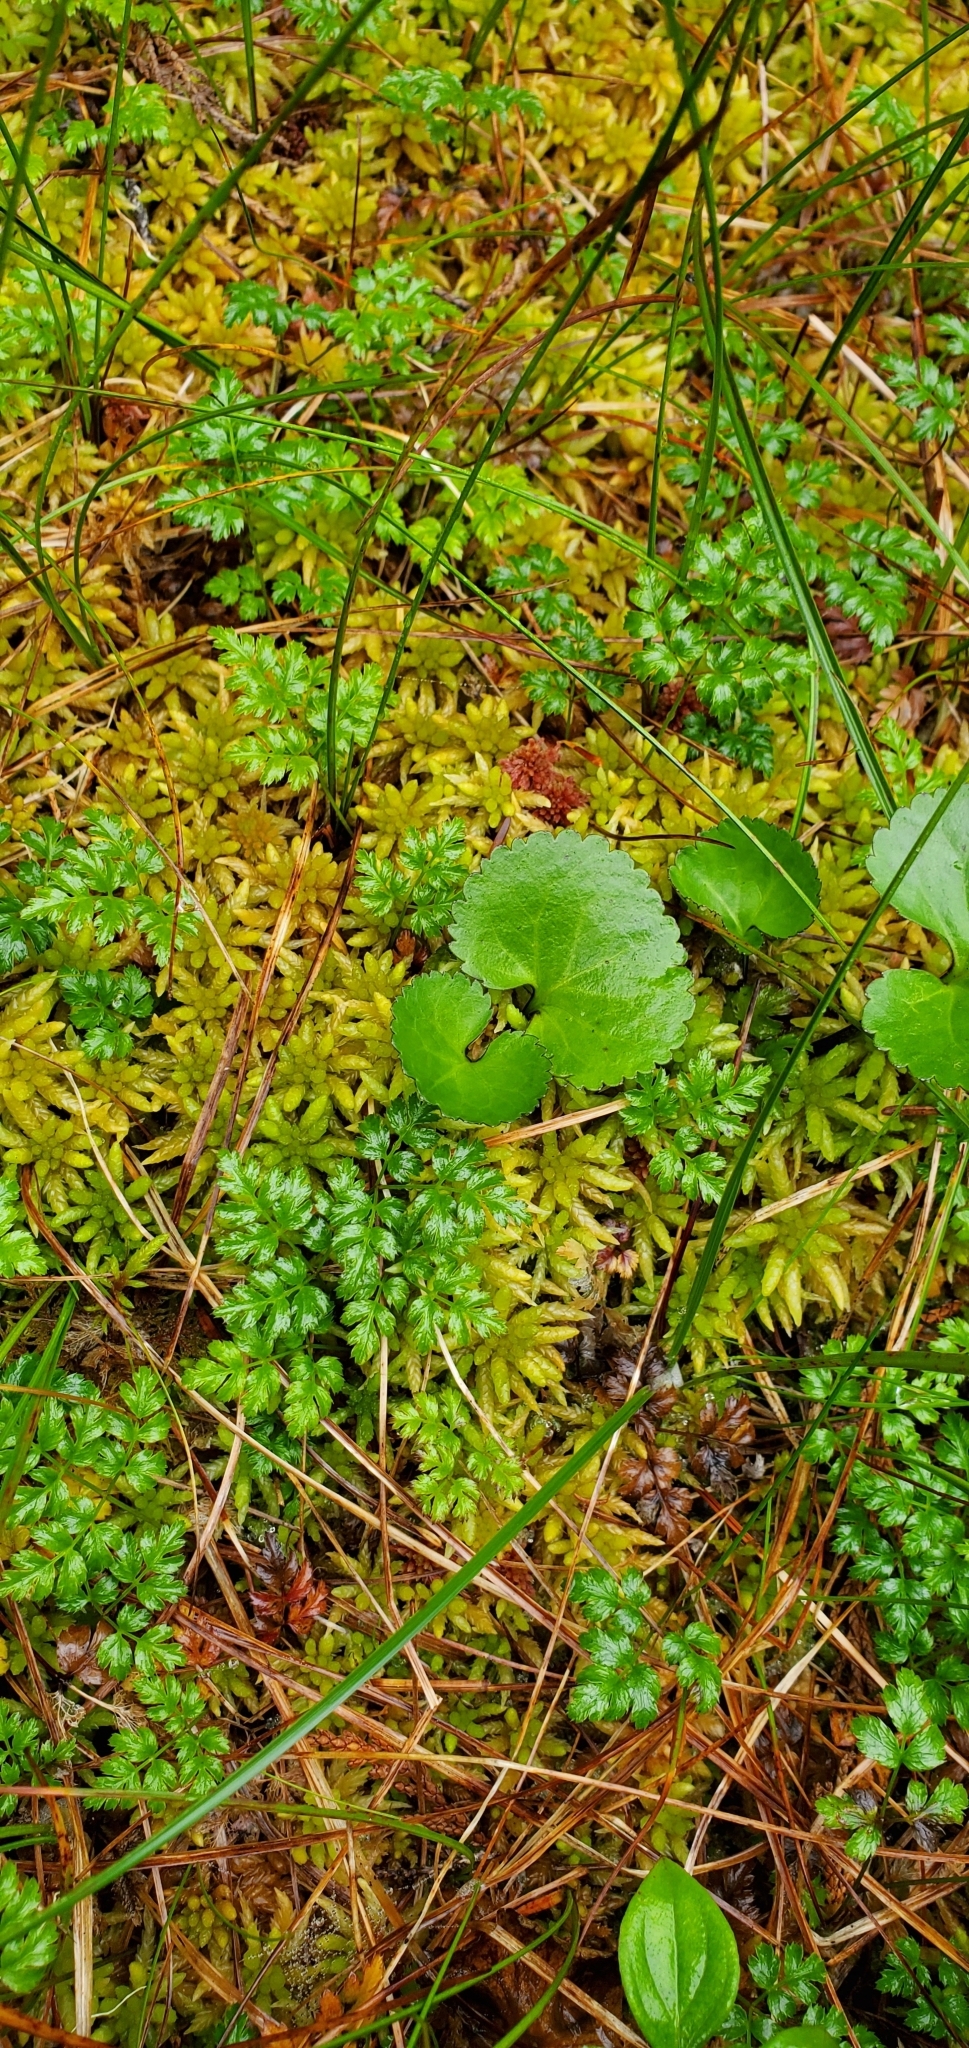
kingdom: Plantae
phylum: Tracheophyta
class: Magnoliopsida
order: Ranunculales
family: Ranunculaceae
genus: Coptis
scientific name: Coptis aspleniifolia
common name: Fern-leaved goldthread
